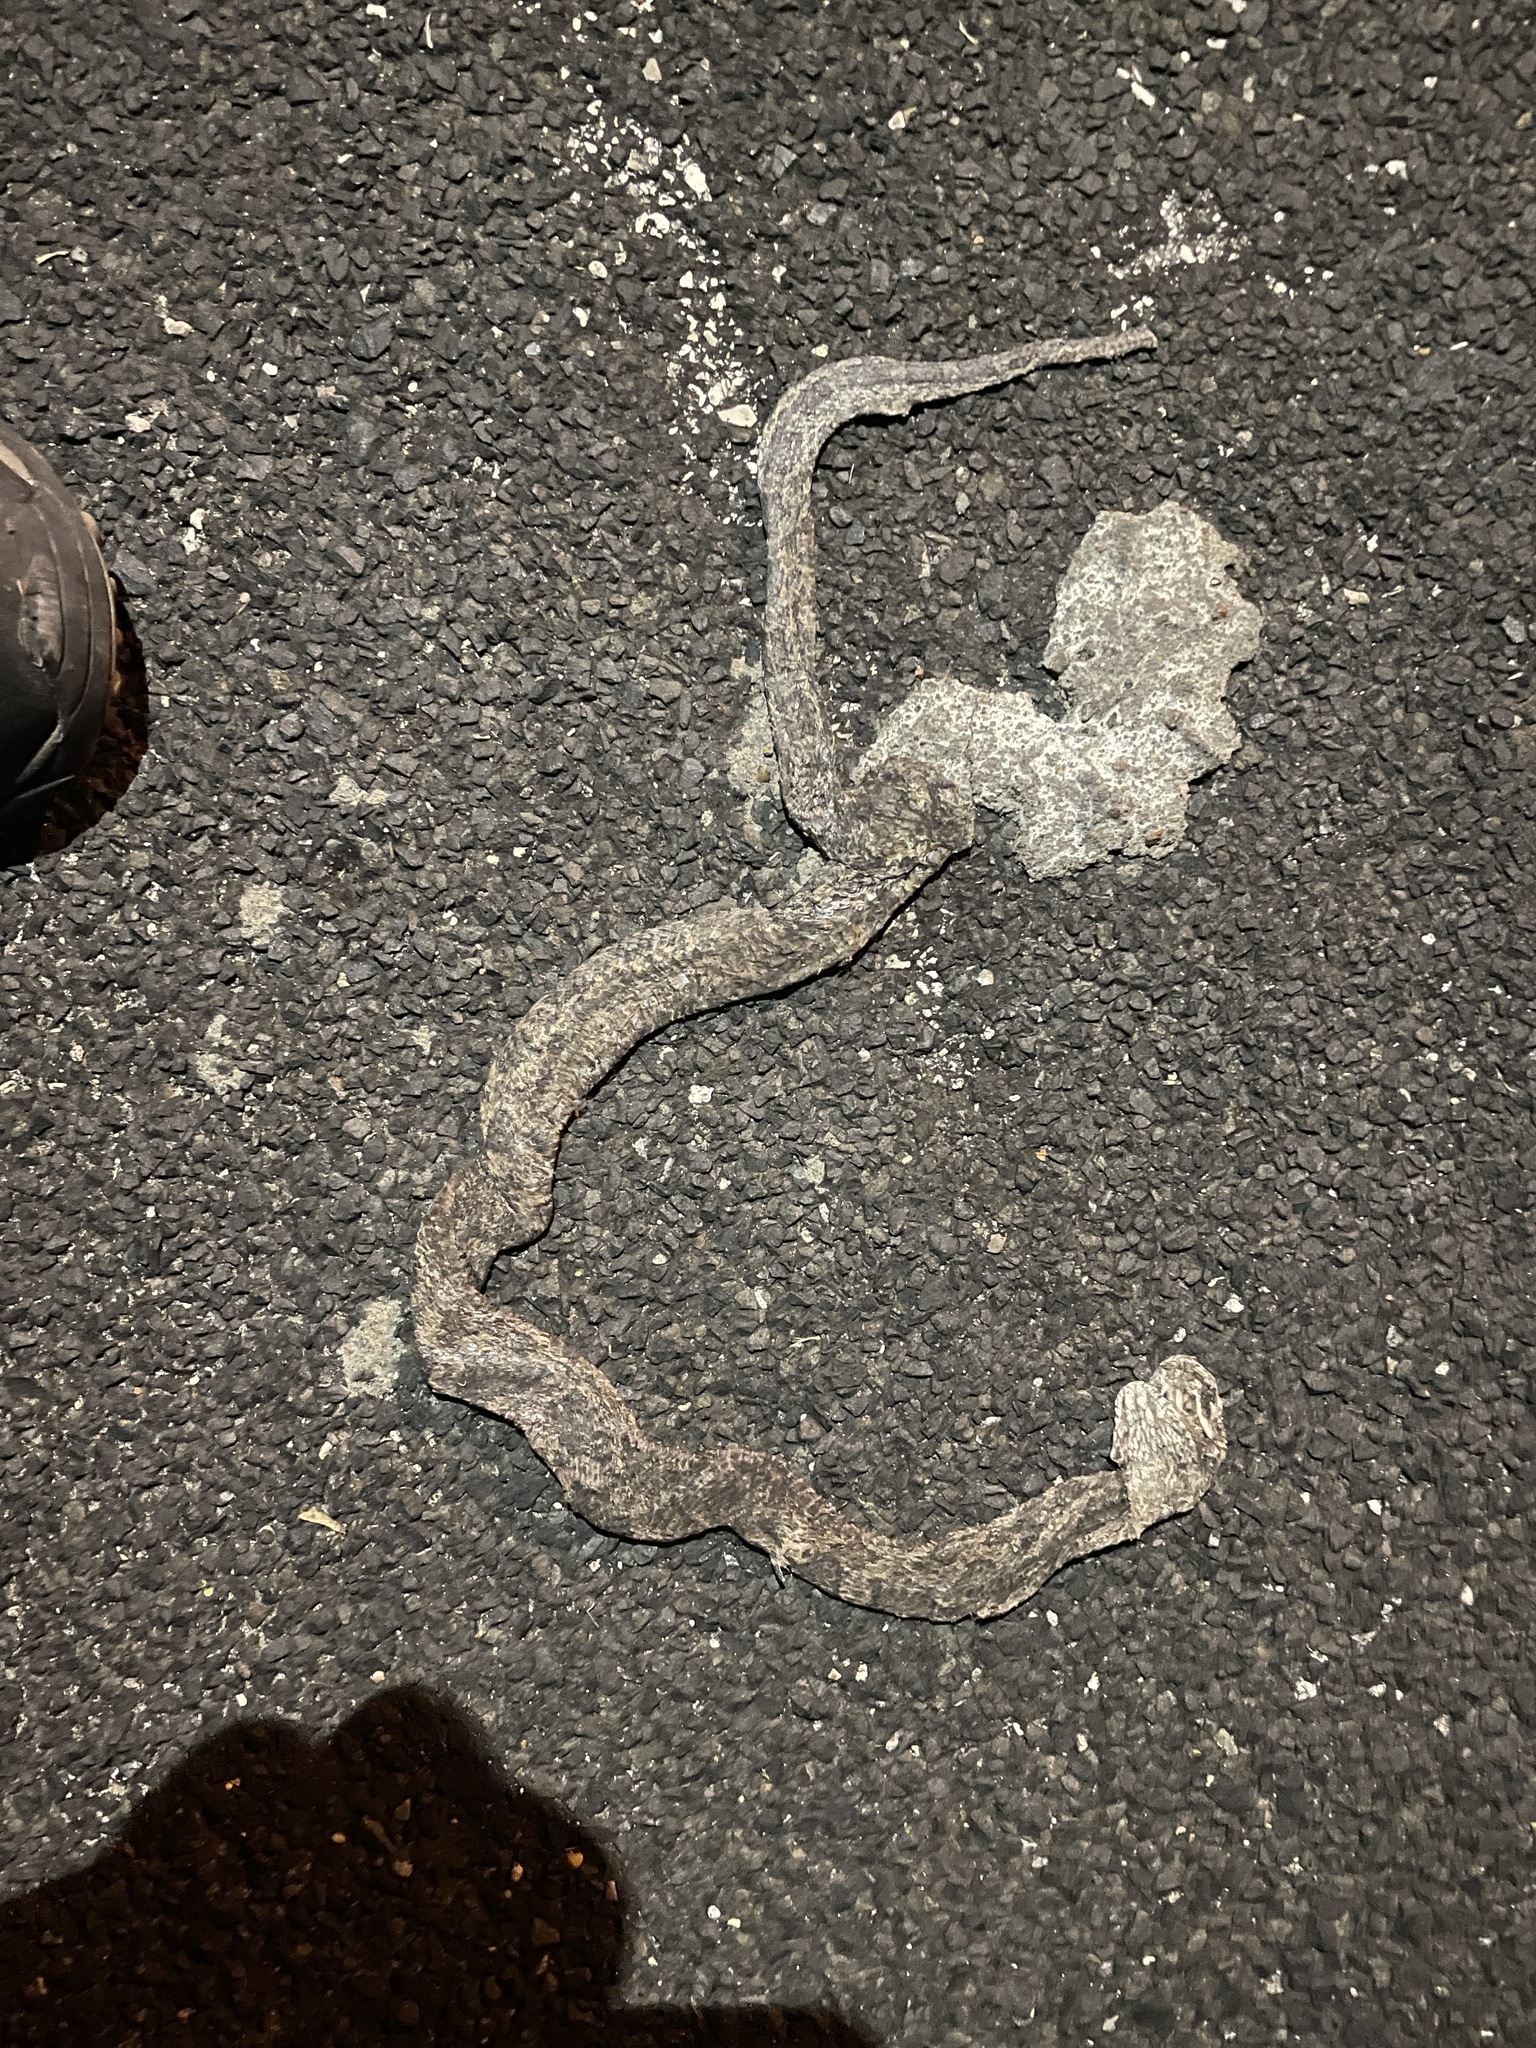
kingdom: Animalia
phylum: Chordata
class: Squamata
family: Colubridae
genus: Pantherophis
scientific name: Pantherophis obsoletus
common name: Black rat snake
